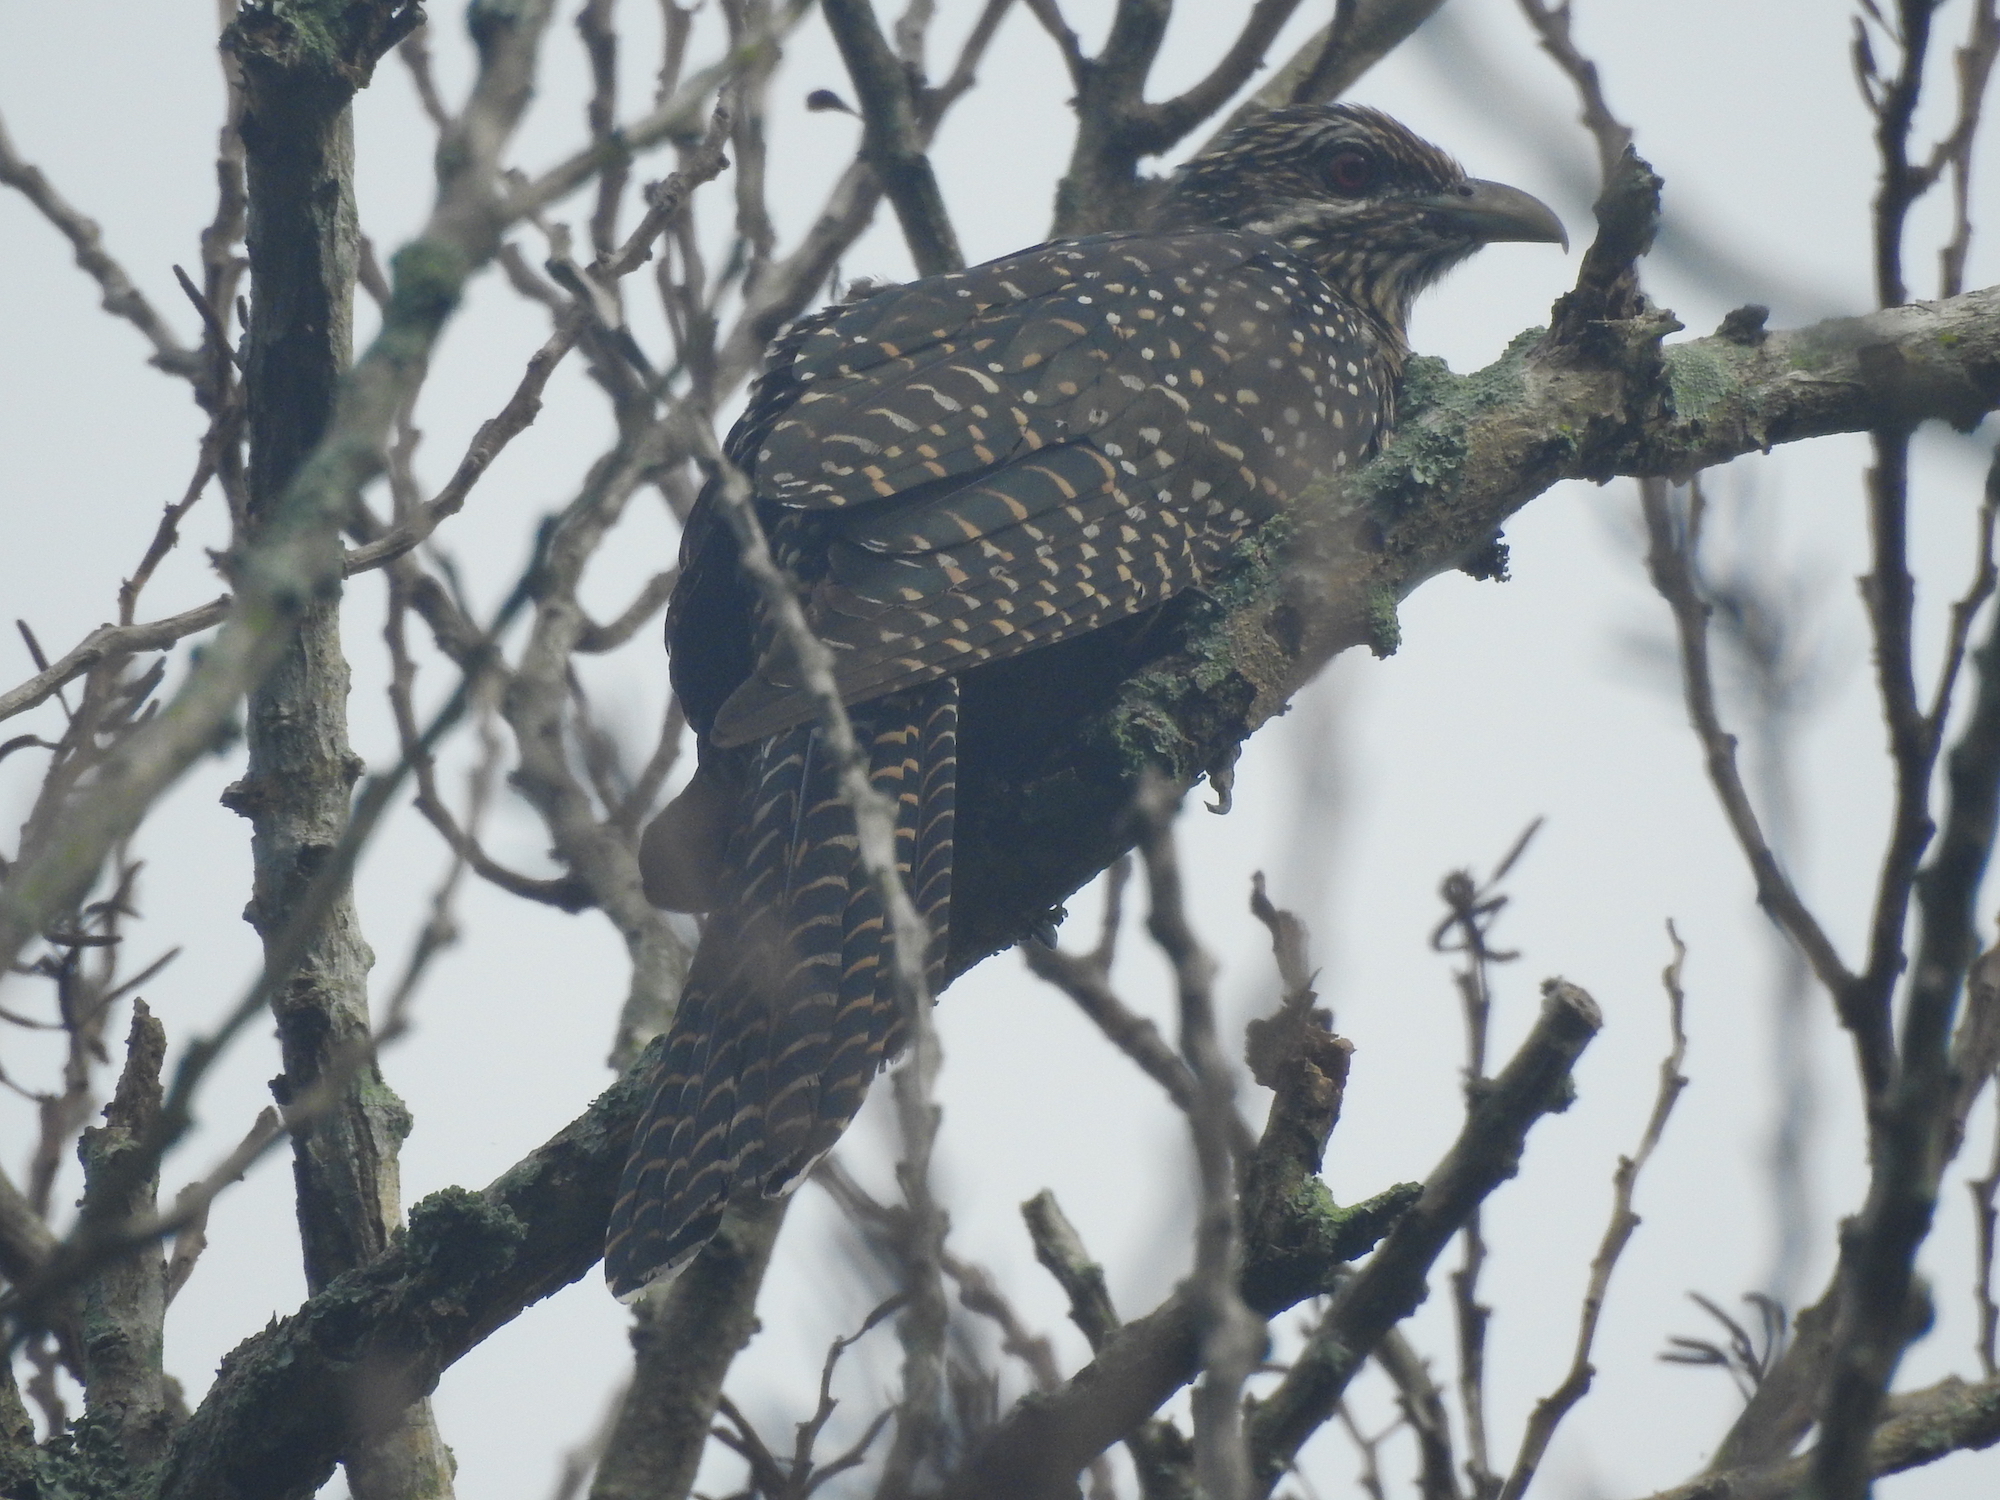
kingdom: Animalia
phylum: Chordata
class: Aves
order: Cuculiformes
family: Cuculidae
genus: Eudynamys
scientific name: Eudynamys scolopaceus
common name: Asian koel
